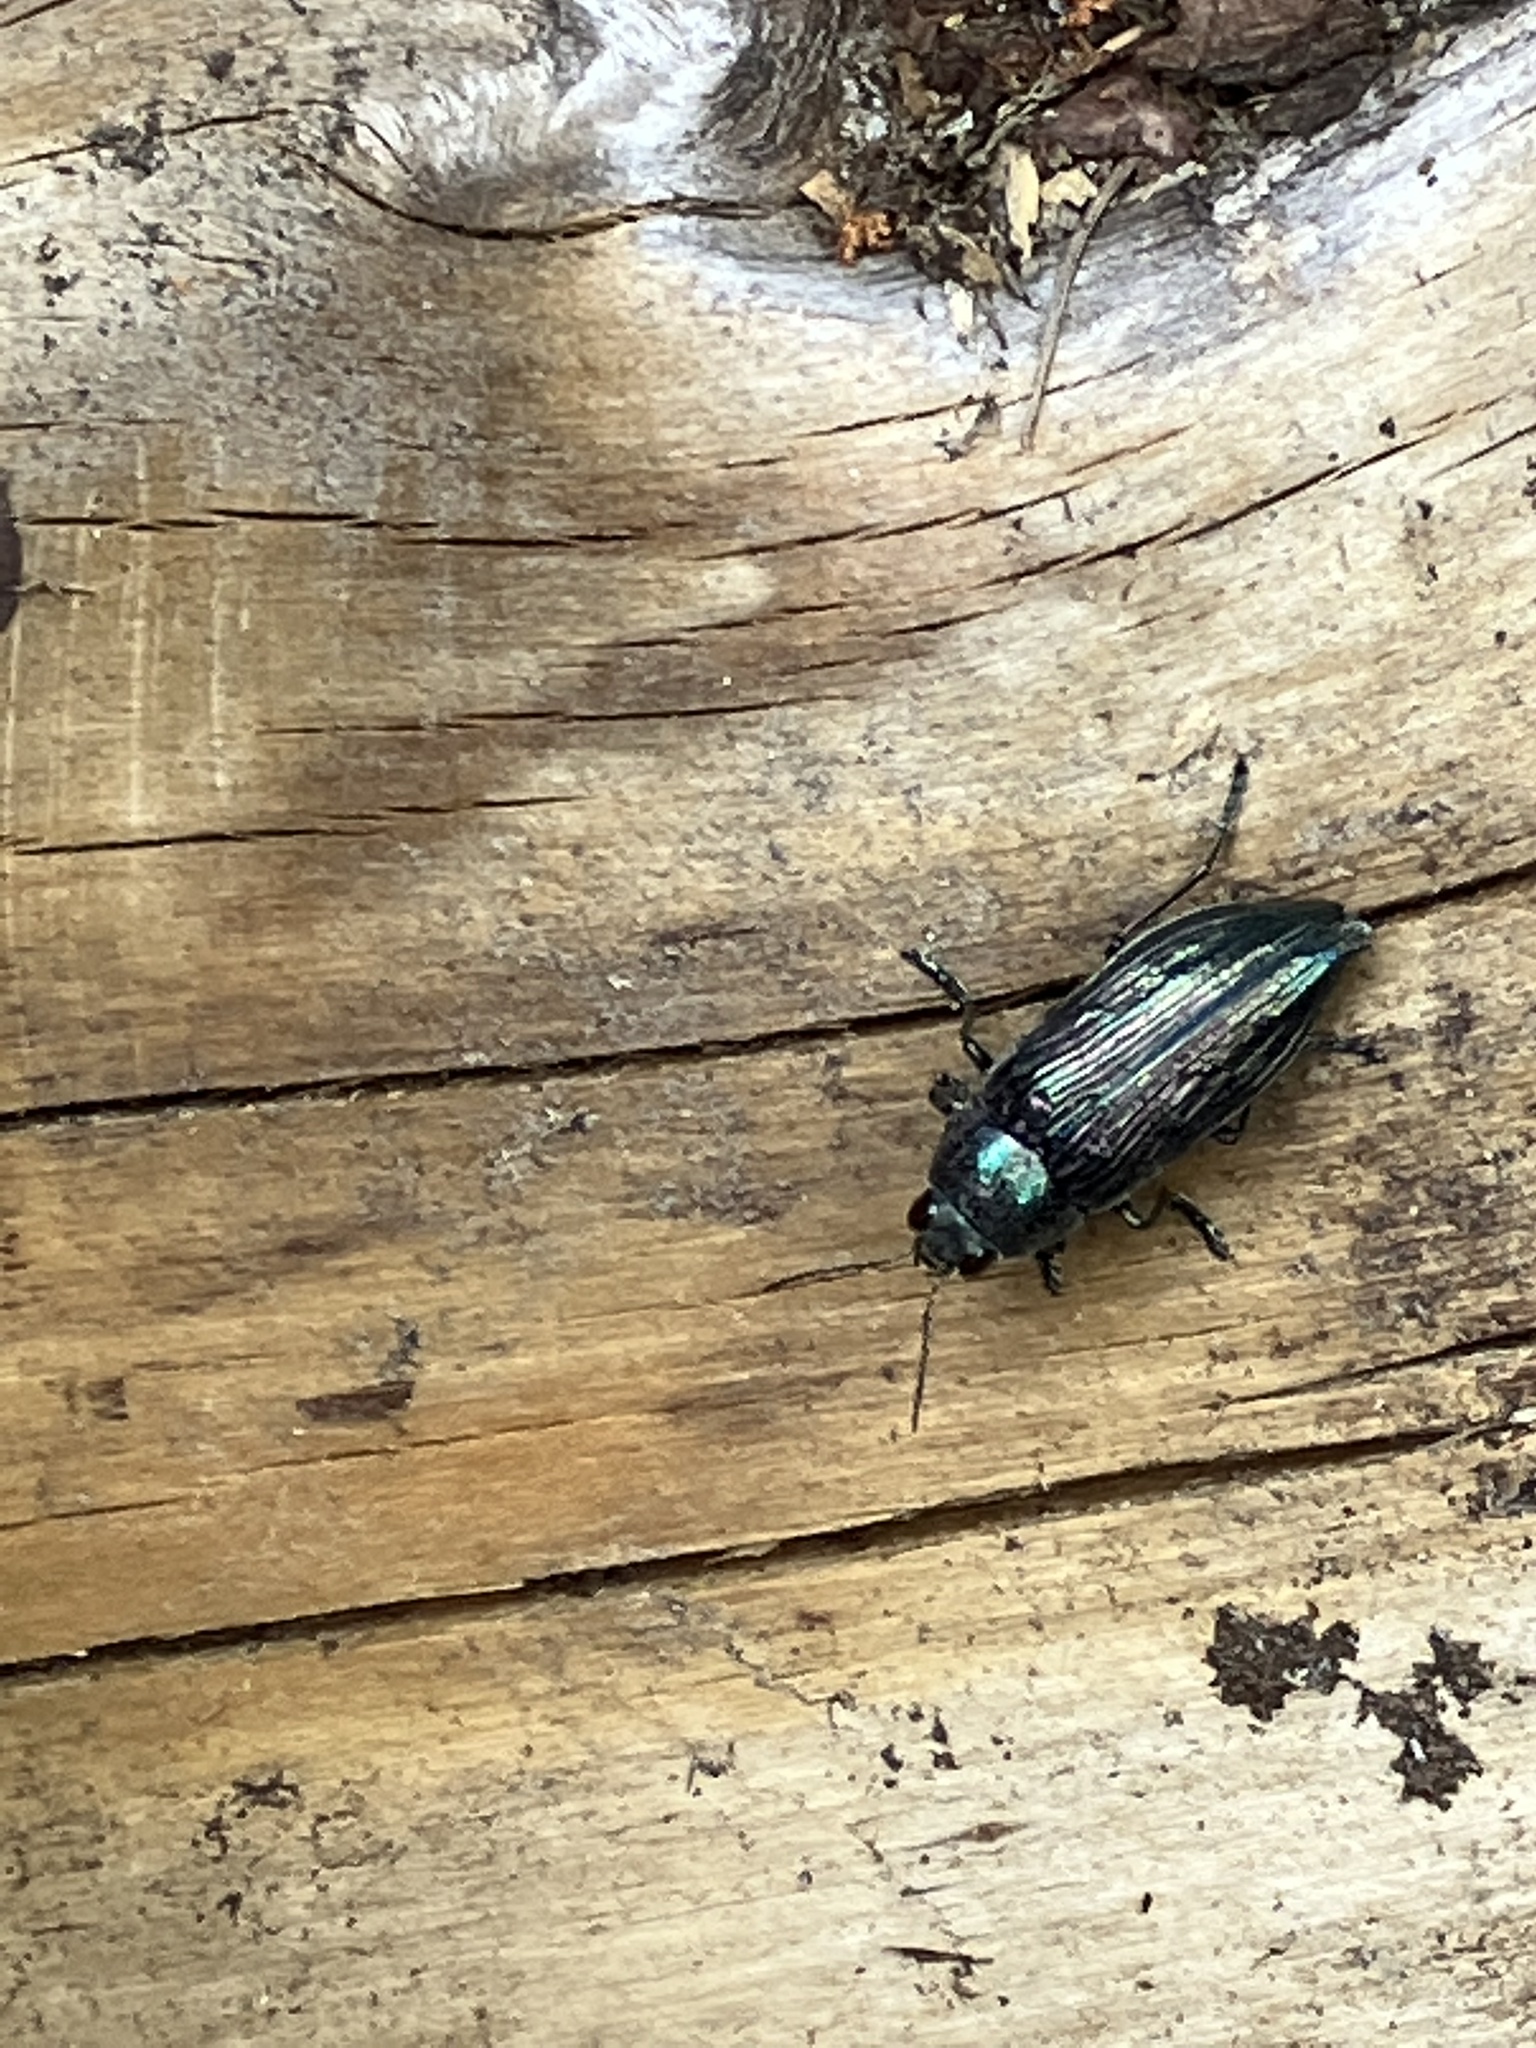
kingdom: Animalia
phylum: Arthropoda
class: Insecta
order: Coleoptera
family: Buprestidae
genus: Buprestis
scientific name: Buprestis rustica
